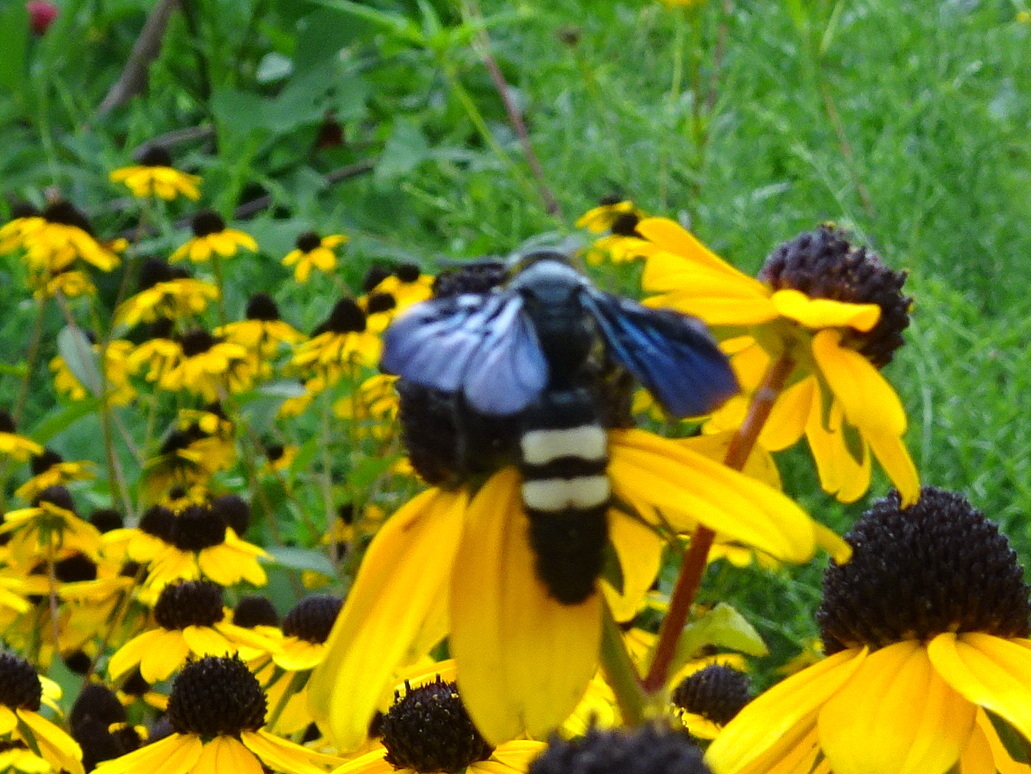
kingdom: Animalia
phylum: Arthropoda
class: Insecta
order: Hymenoptera
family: Scoliidae
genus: Scolia
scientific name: Scolia bicincta
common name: Double-banded scoliid wasp
